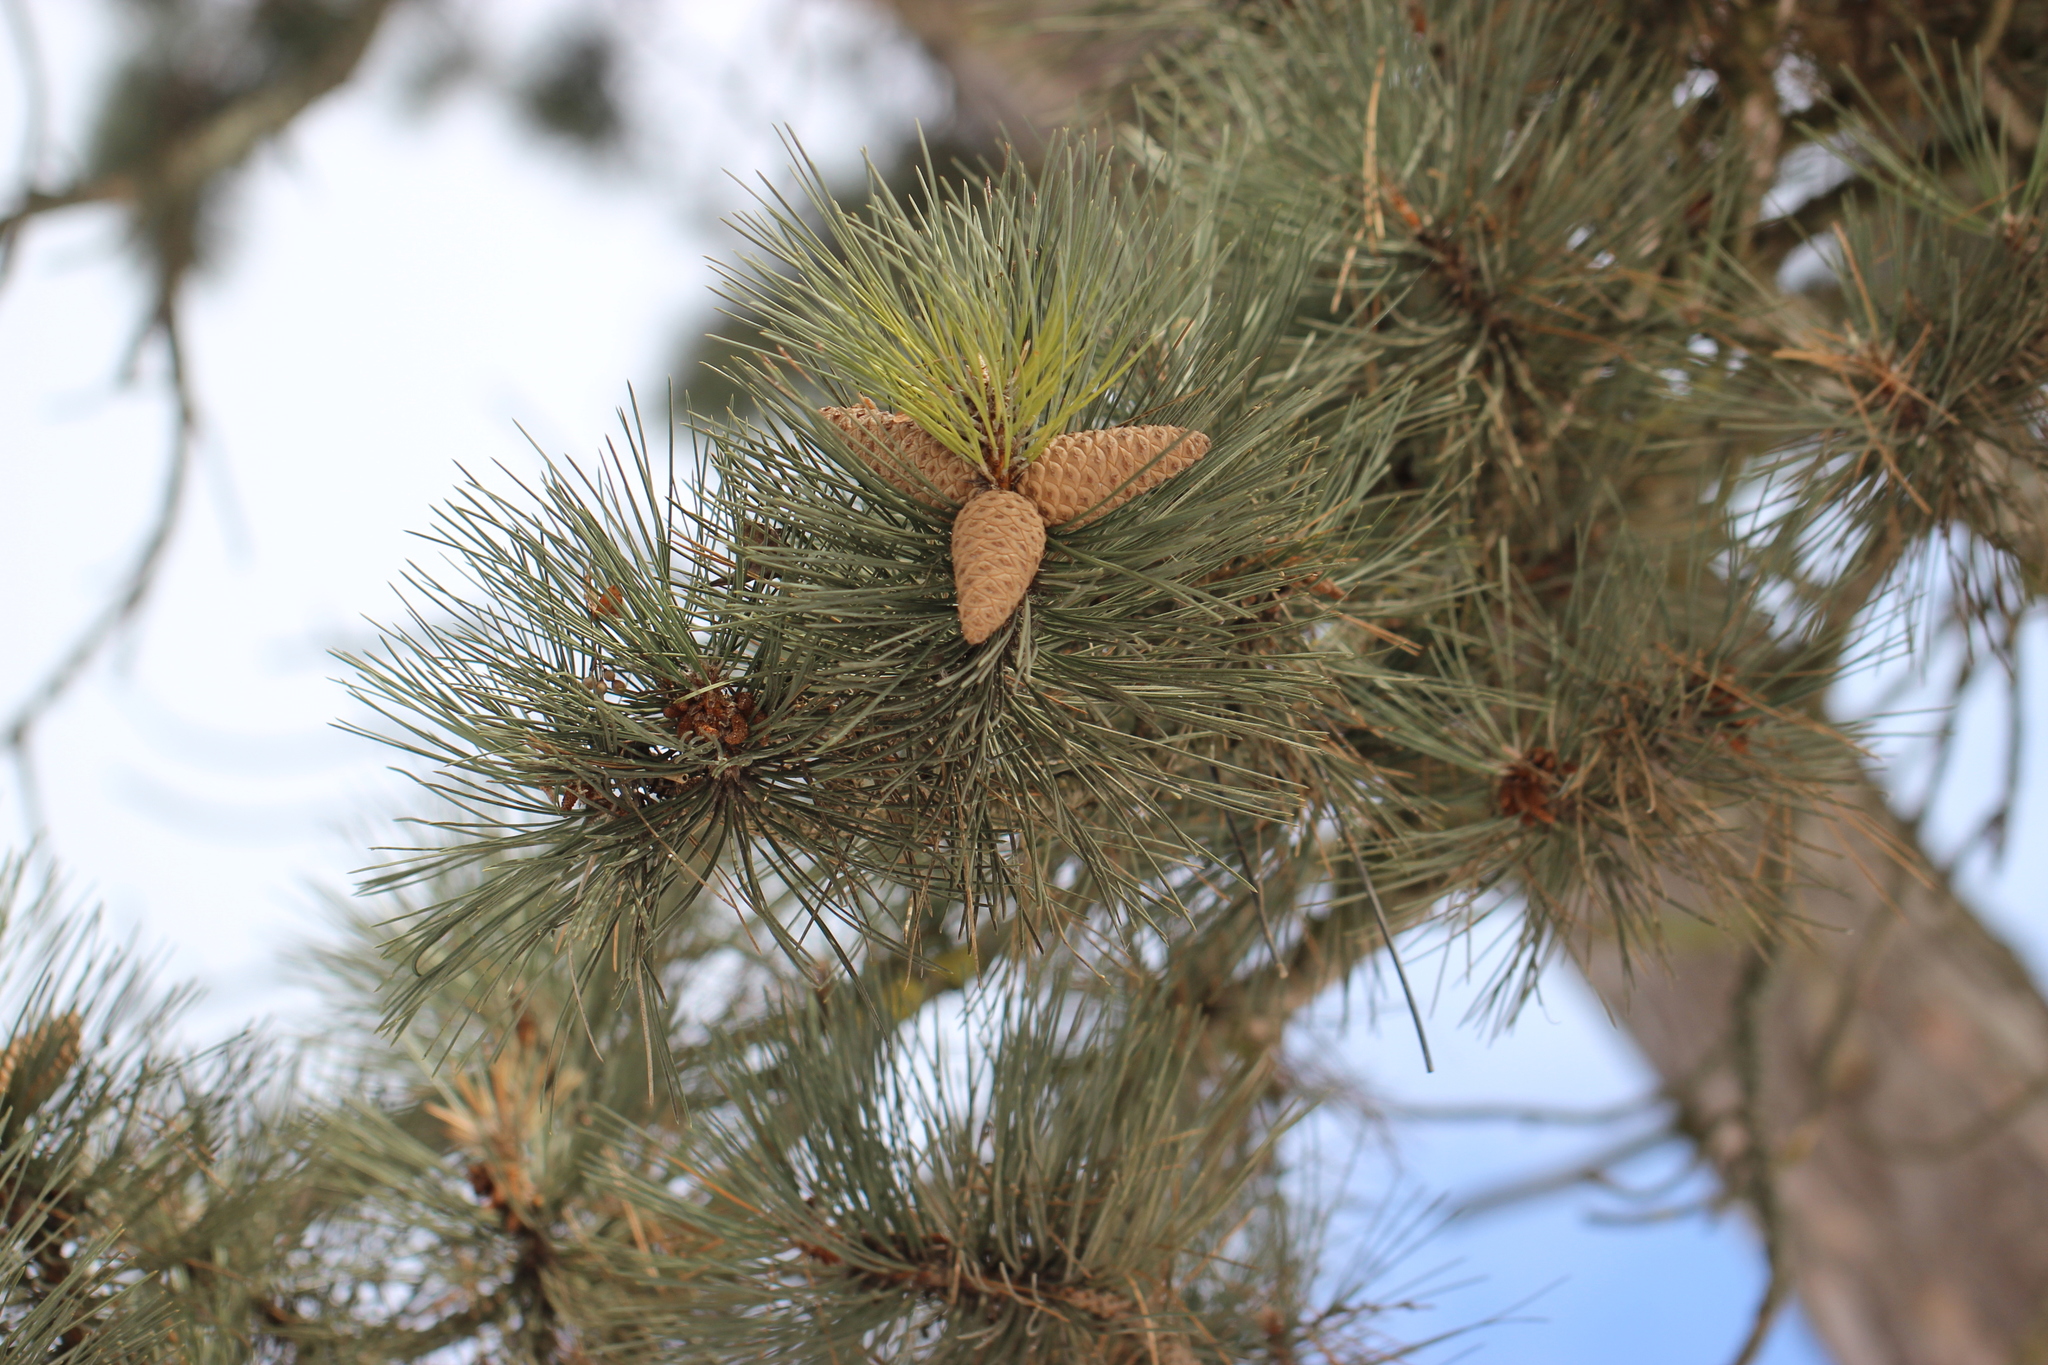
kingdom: Plantae
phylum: Tracheophyta
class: Pinopsida
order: Pinales
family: Pinaceae
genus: Pinus
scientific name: Pinus nigra
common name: Austrian pine
